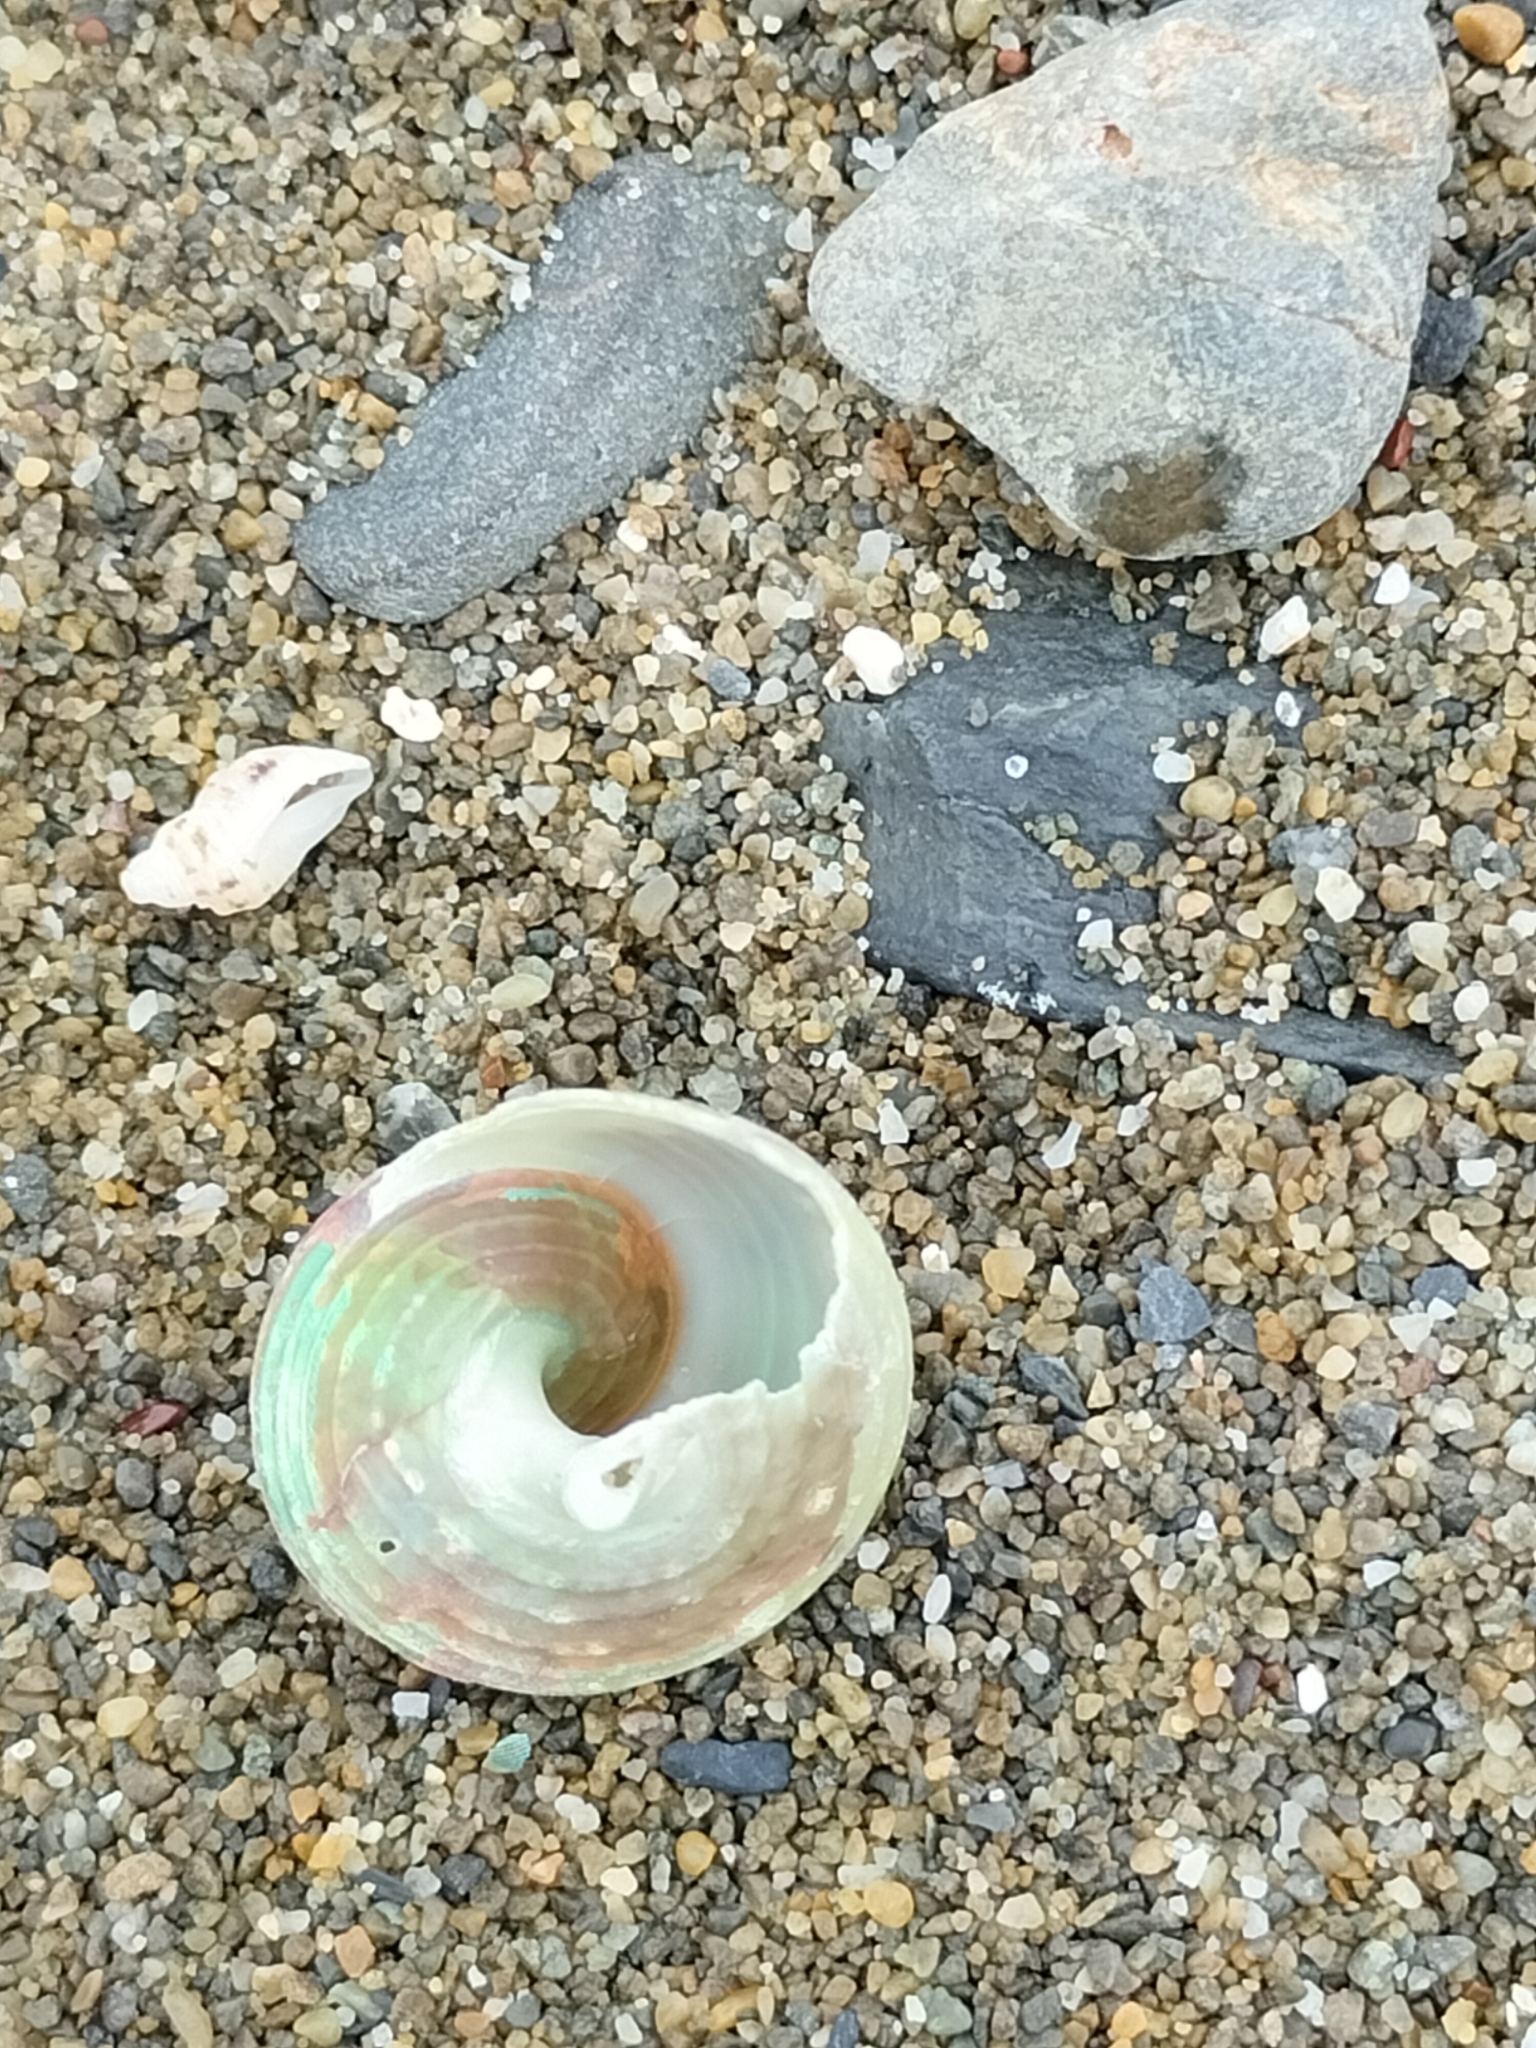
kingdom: Animalia
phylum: Mollusca
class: Gastropoda
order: Trochida
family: Trochidae
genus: Cantharidus
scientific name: Cantharidus opalus
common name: Opal jewel topsnail
